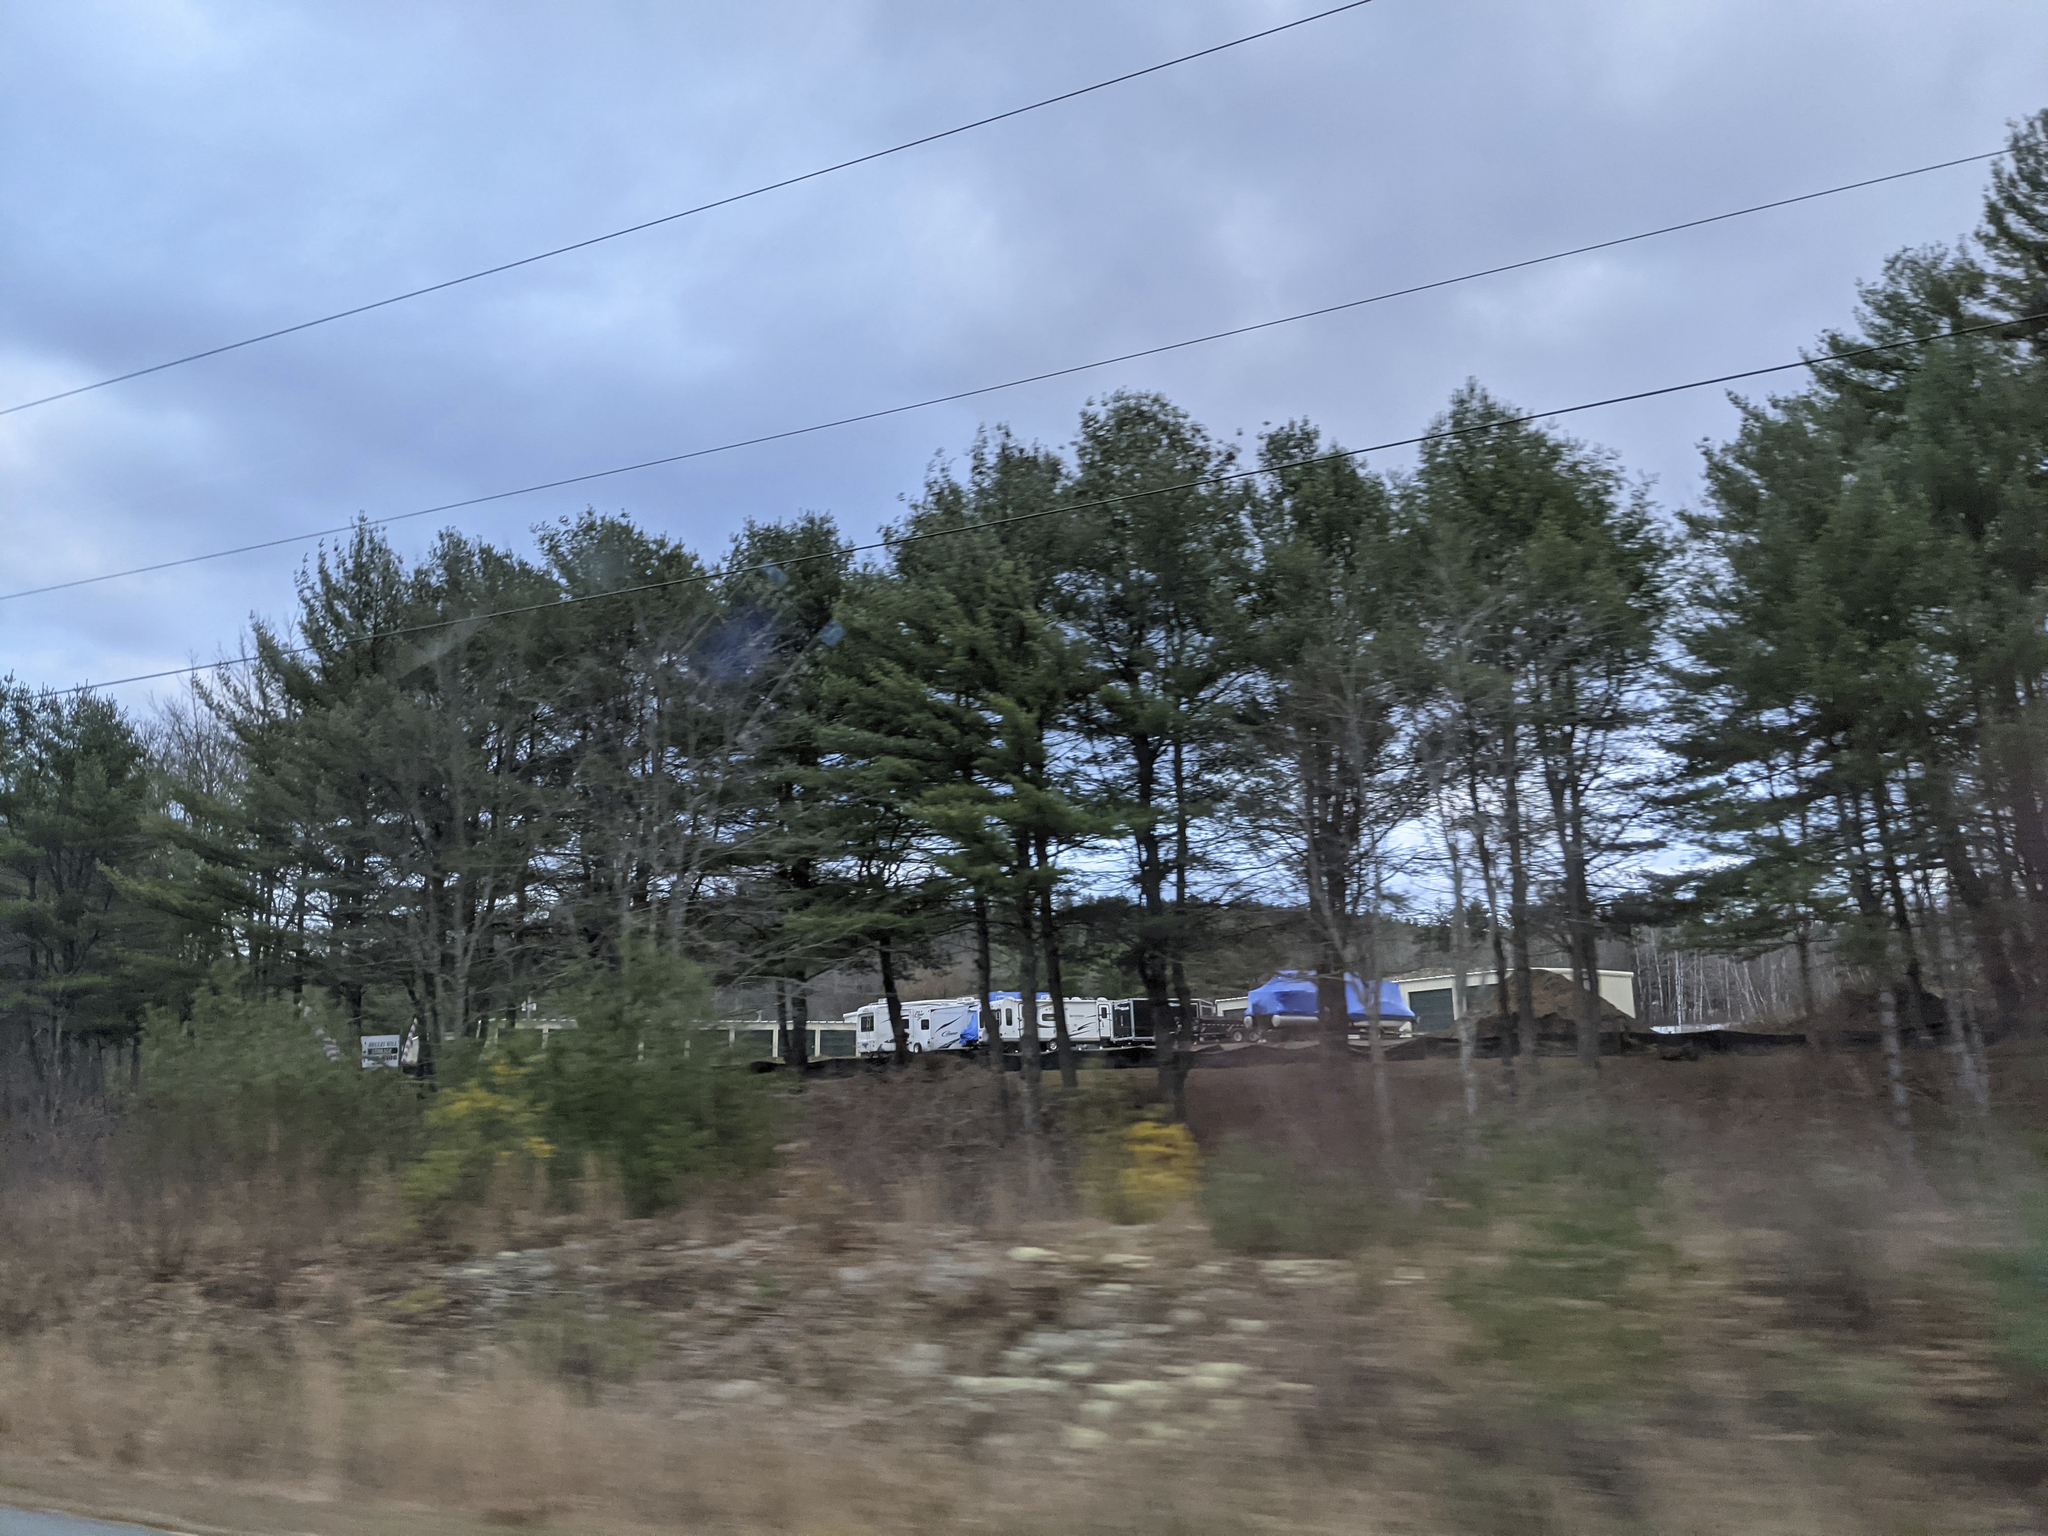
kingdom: Plantae
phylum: Tracheophyta
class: Pinopsida
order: Pinales
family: Pinaceae
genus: Pinus
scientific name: Pinus strobus
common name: Weymouth pine
